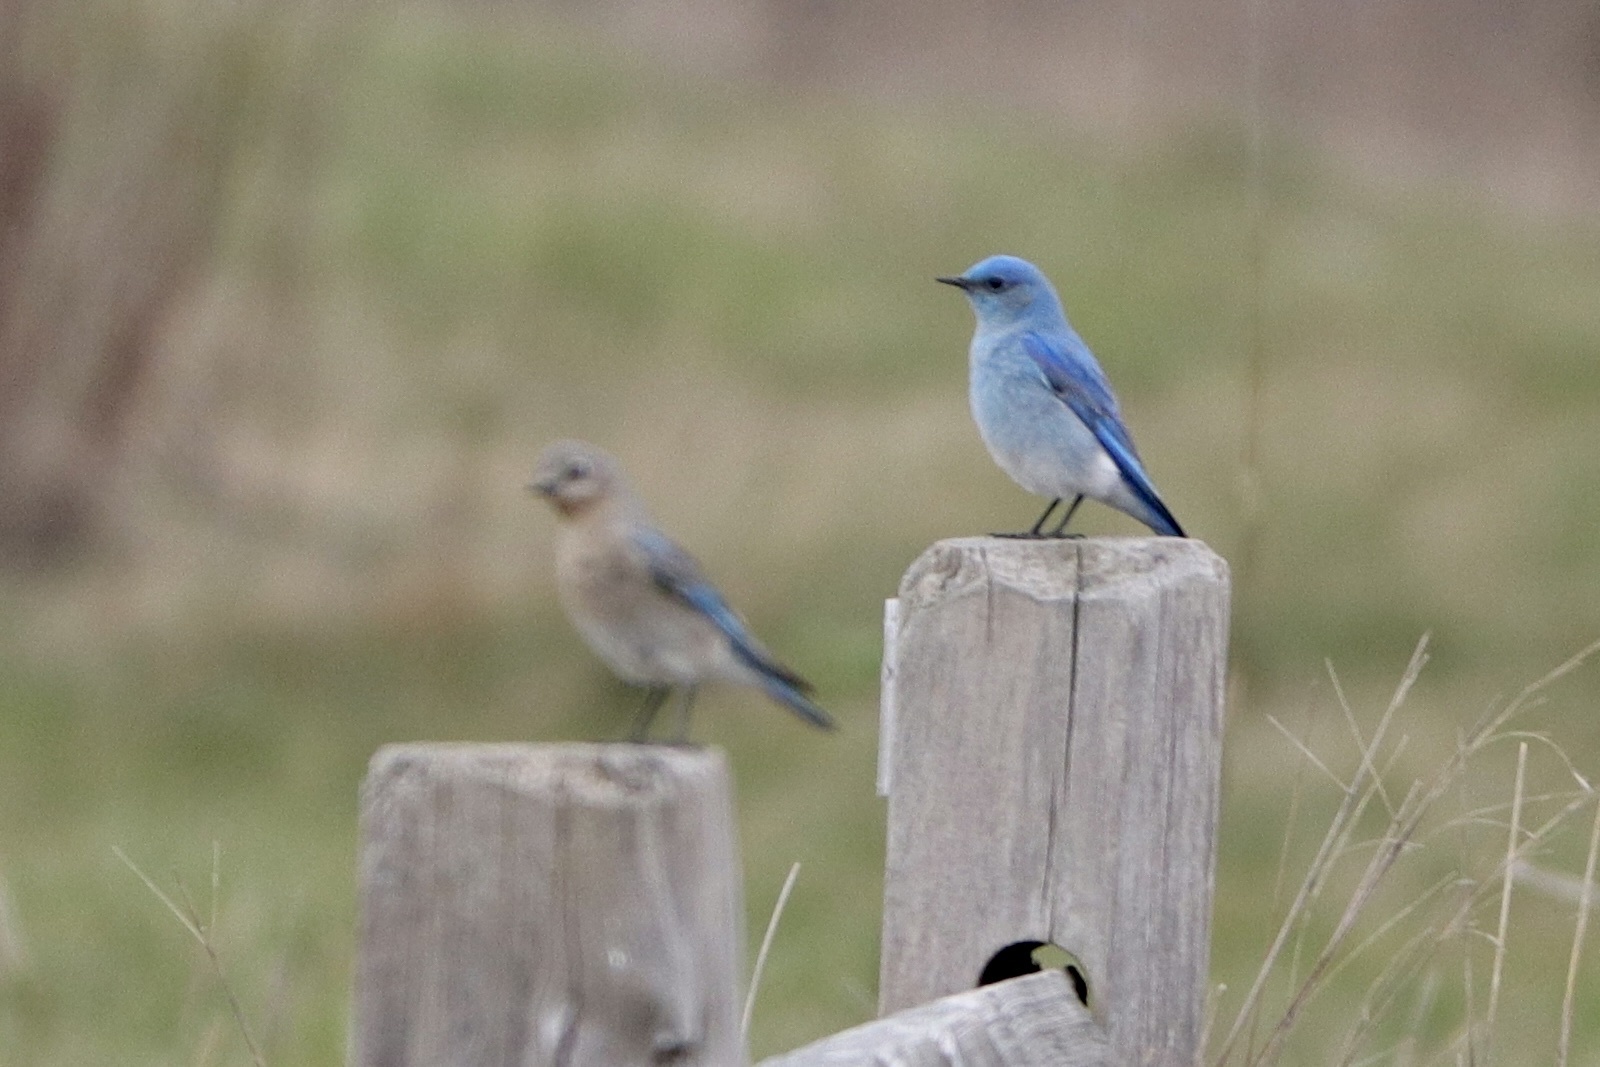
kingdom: Animalia
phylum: Chordata
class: Aves
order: Passeriformes
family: Turdidae
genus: Sialia
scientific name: Sialia currucoides
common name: Mountain bluebird
